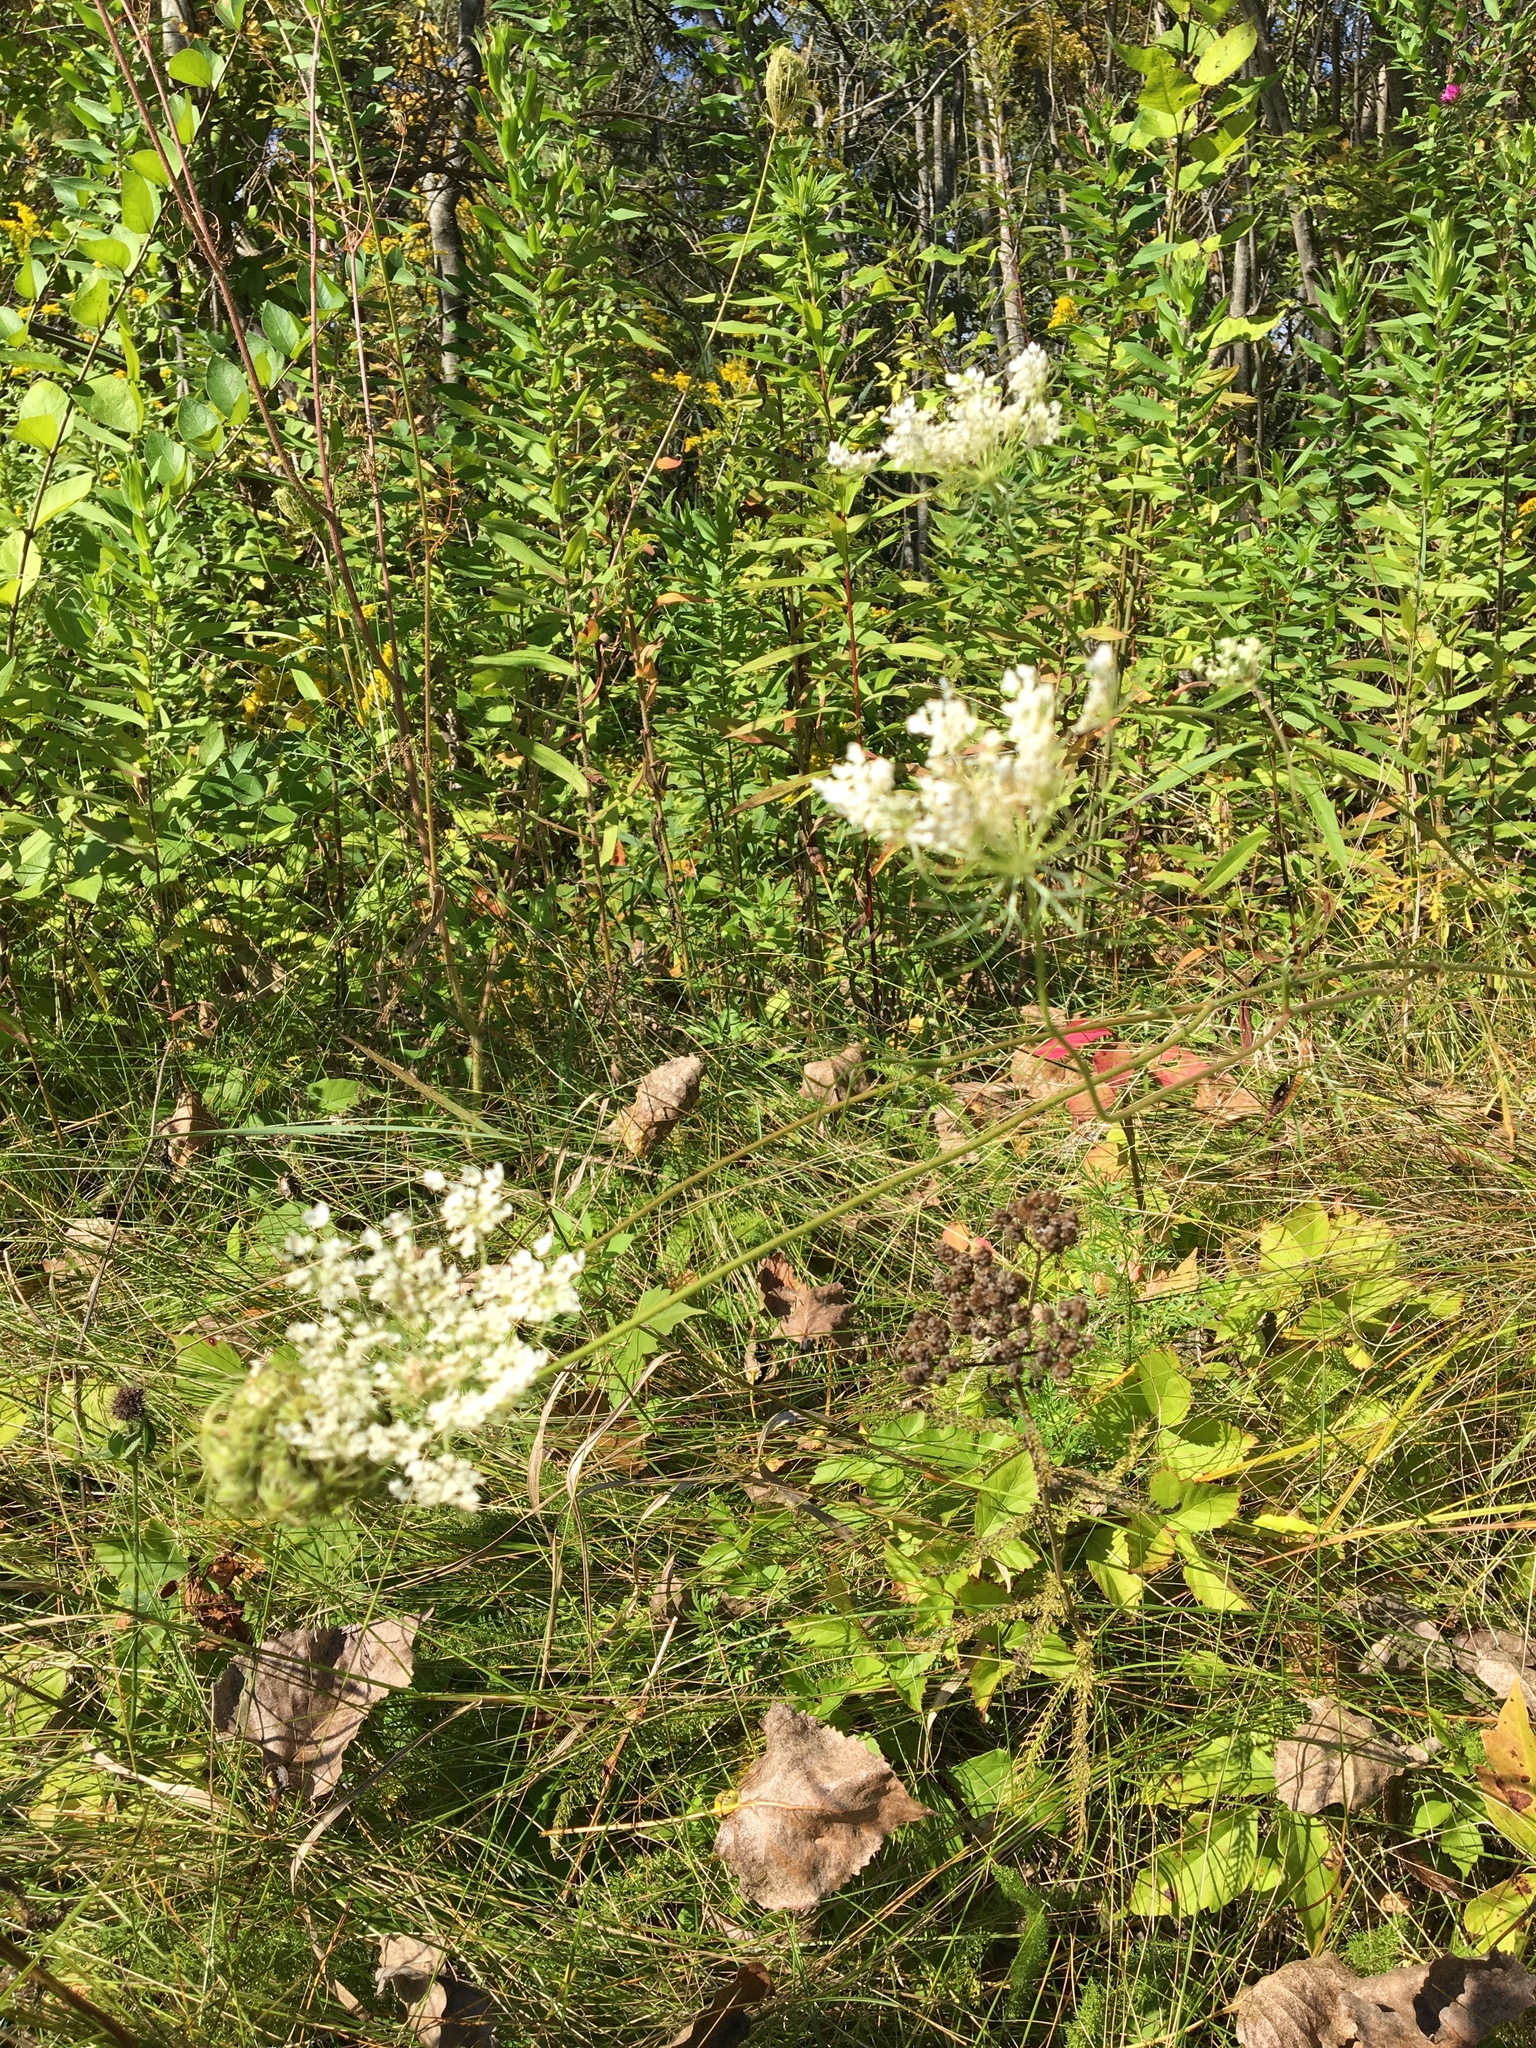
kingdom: Plantae
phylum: Tracheophyta
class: Magnoliopsida
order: Apiales
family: Apiaceae
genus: Daucus
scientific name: Daucus carota
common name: Wild carrot
